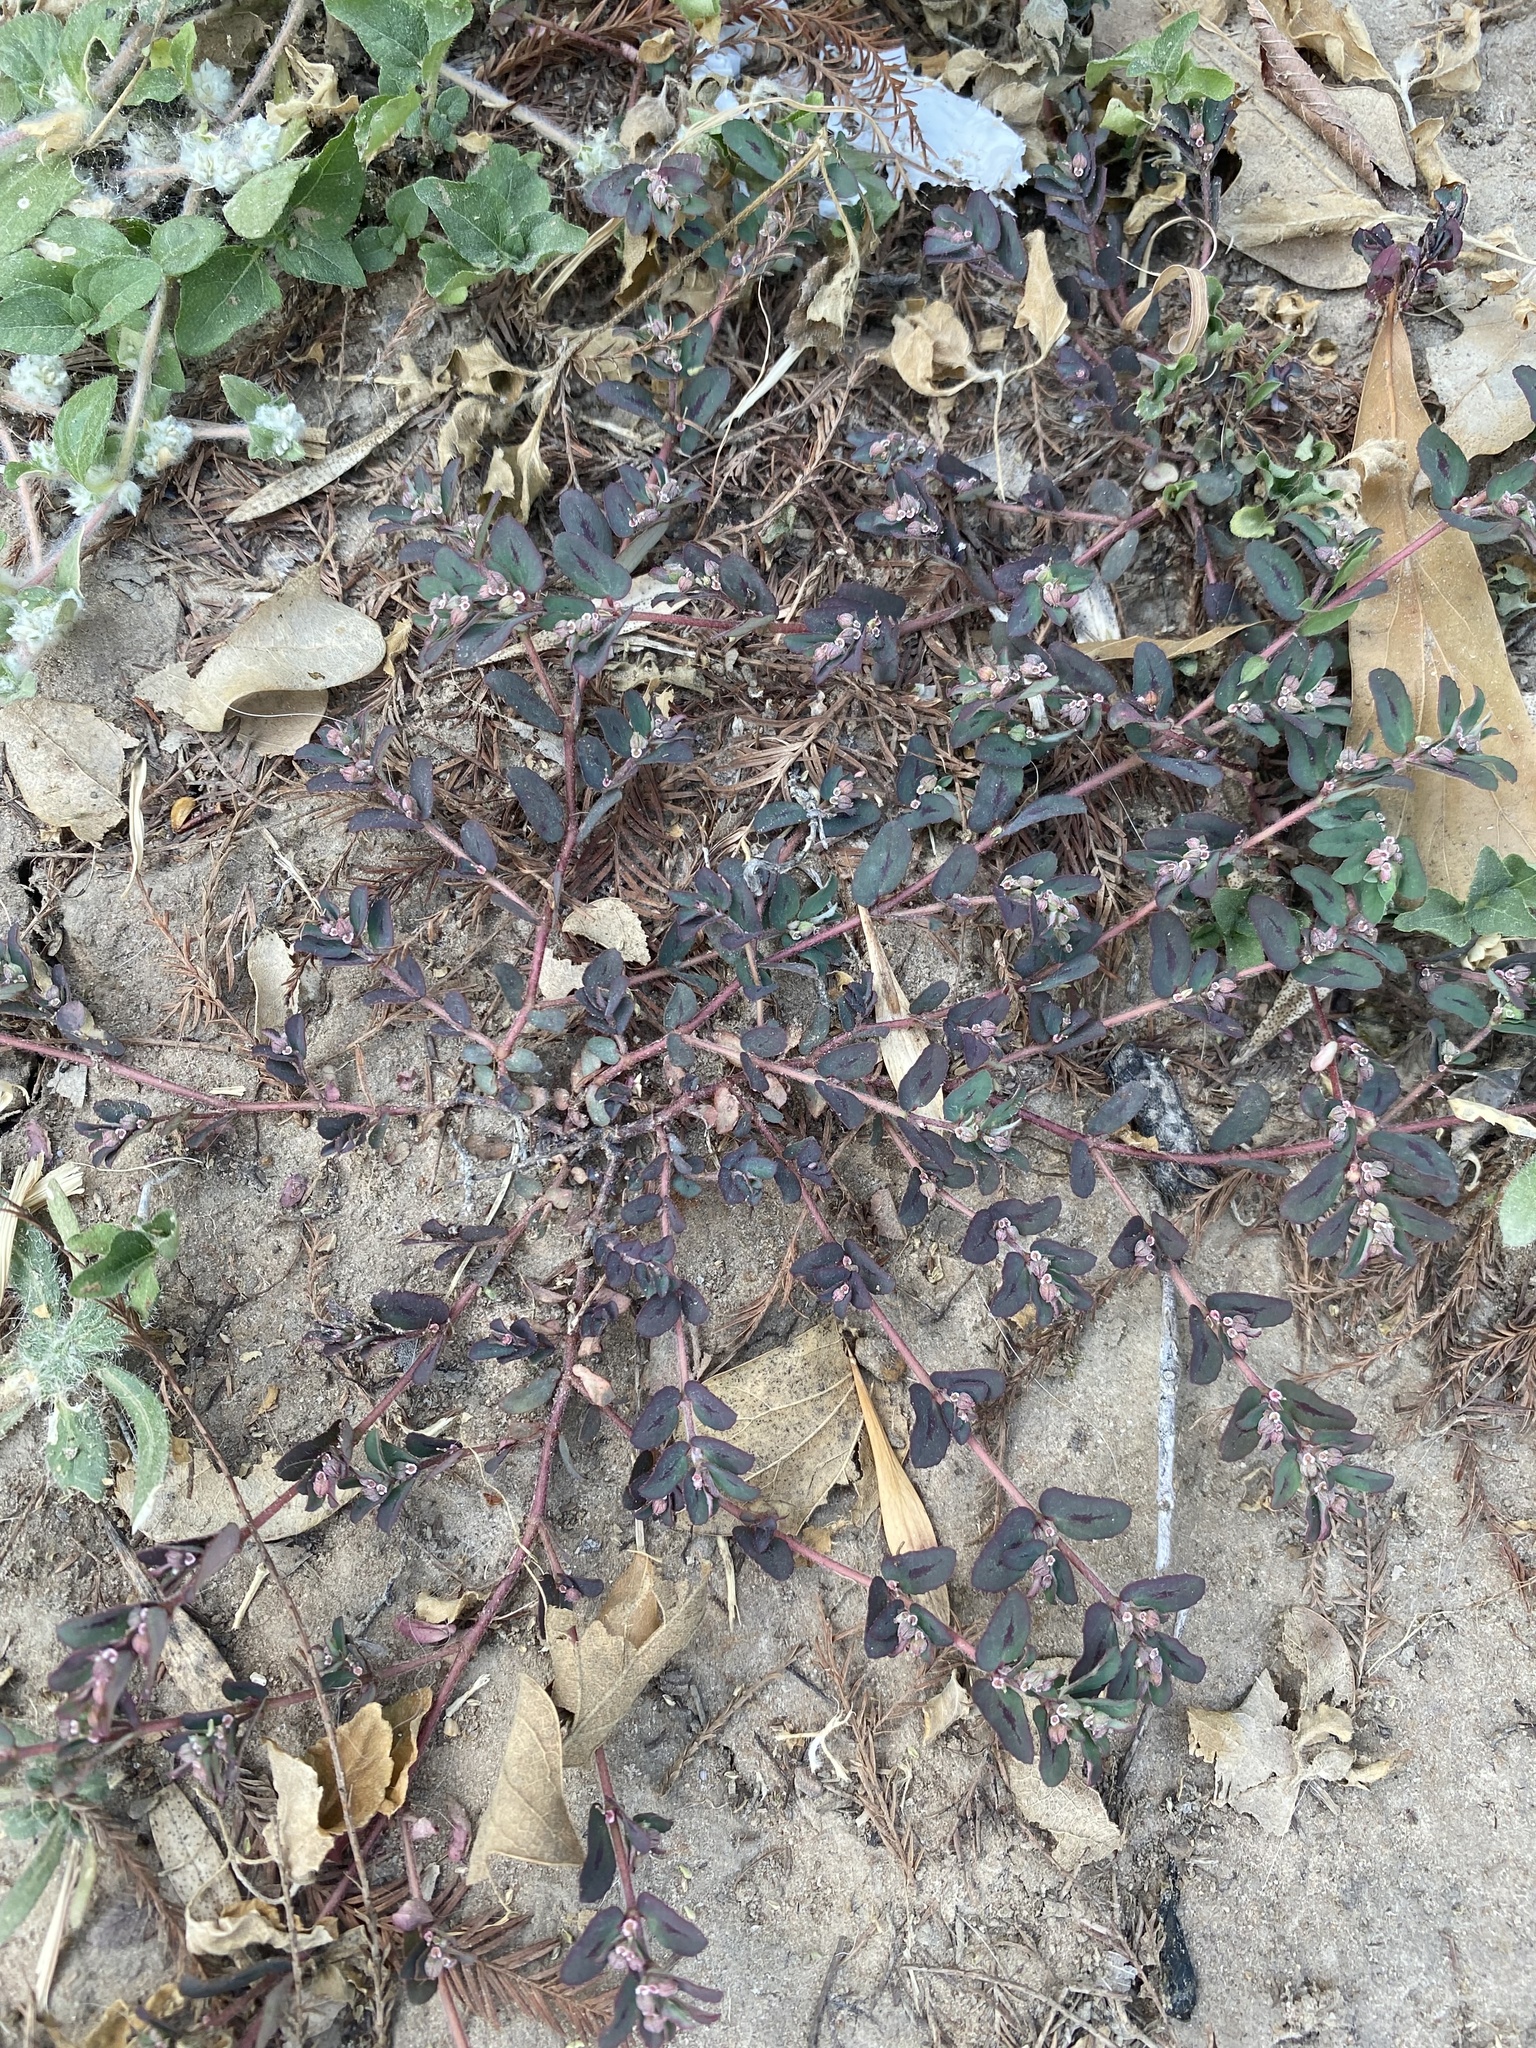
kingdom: Plantae
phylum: Tracheophyta
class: Magnoliopsida
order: Malpighiales
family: Euphorbiaceae
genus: Euphorbia
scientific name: Euphorbia maculata
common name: Spotted spurge
